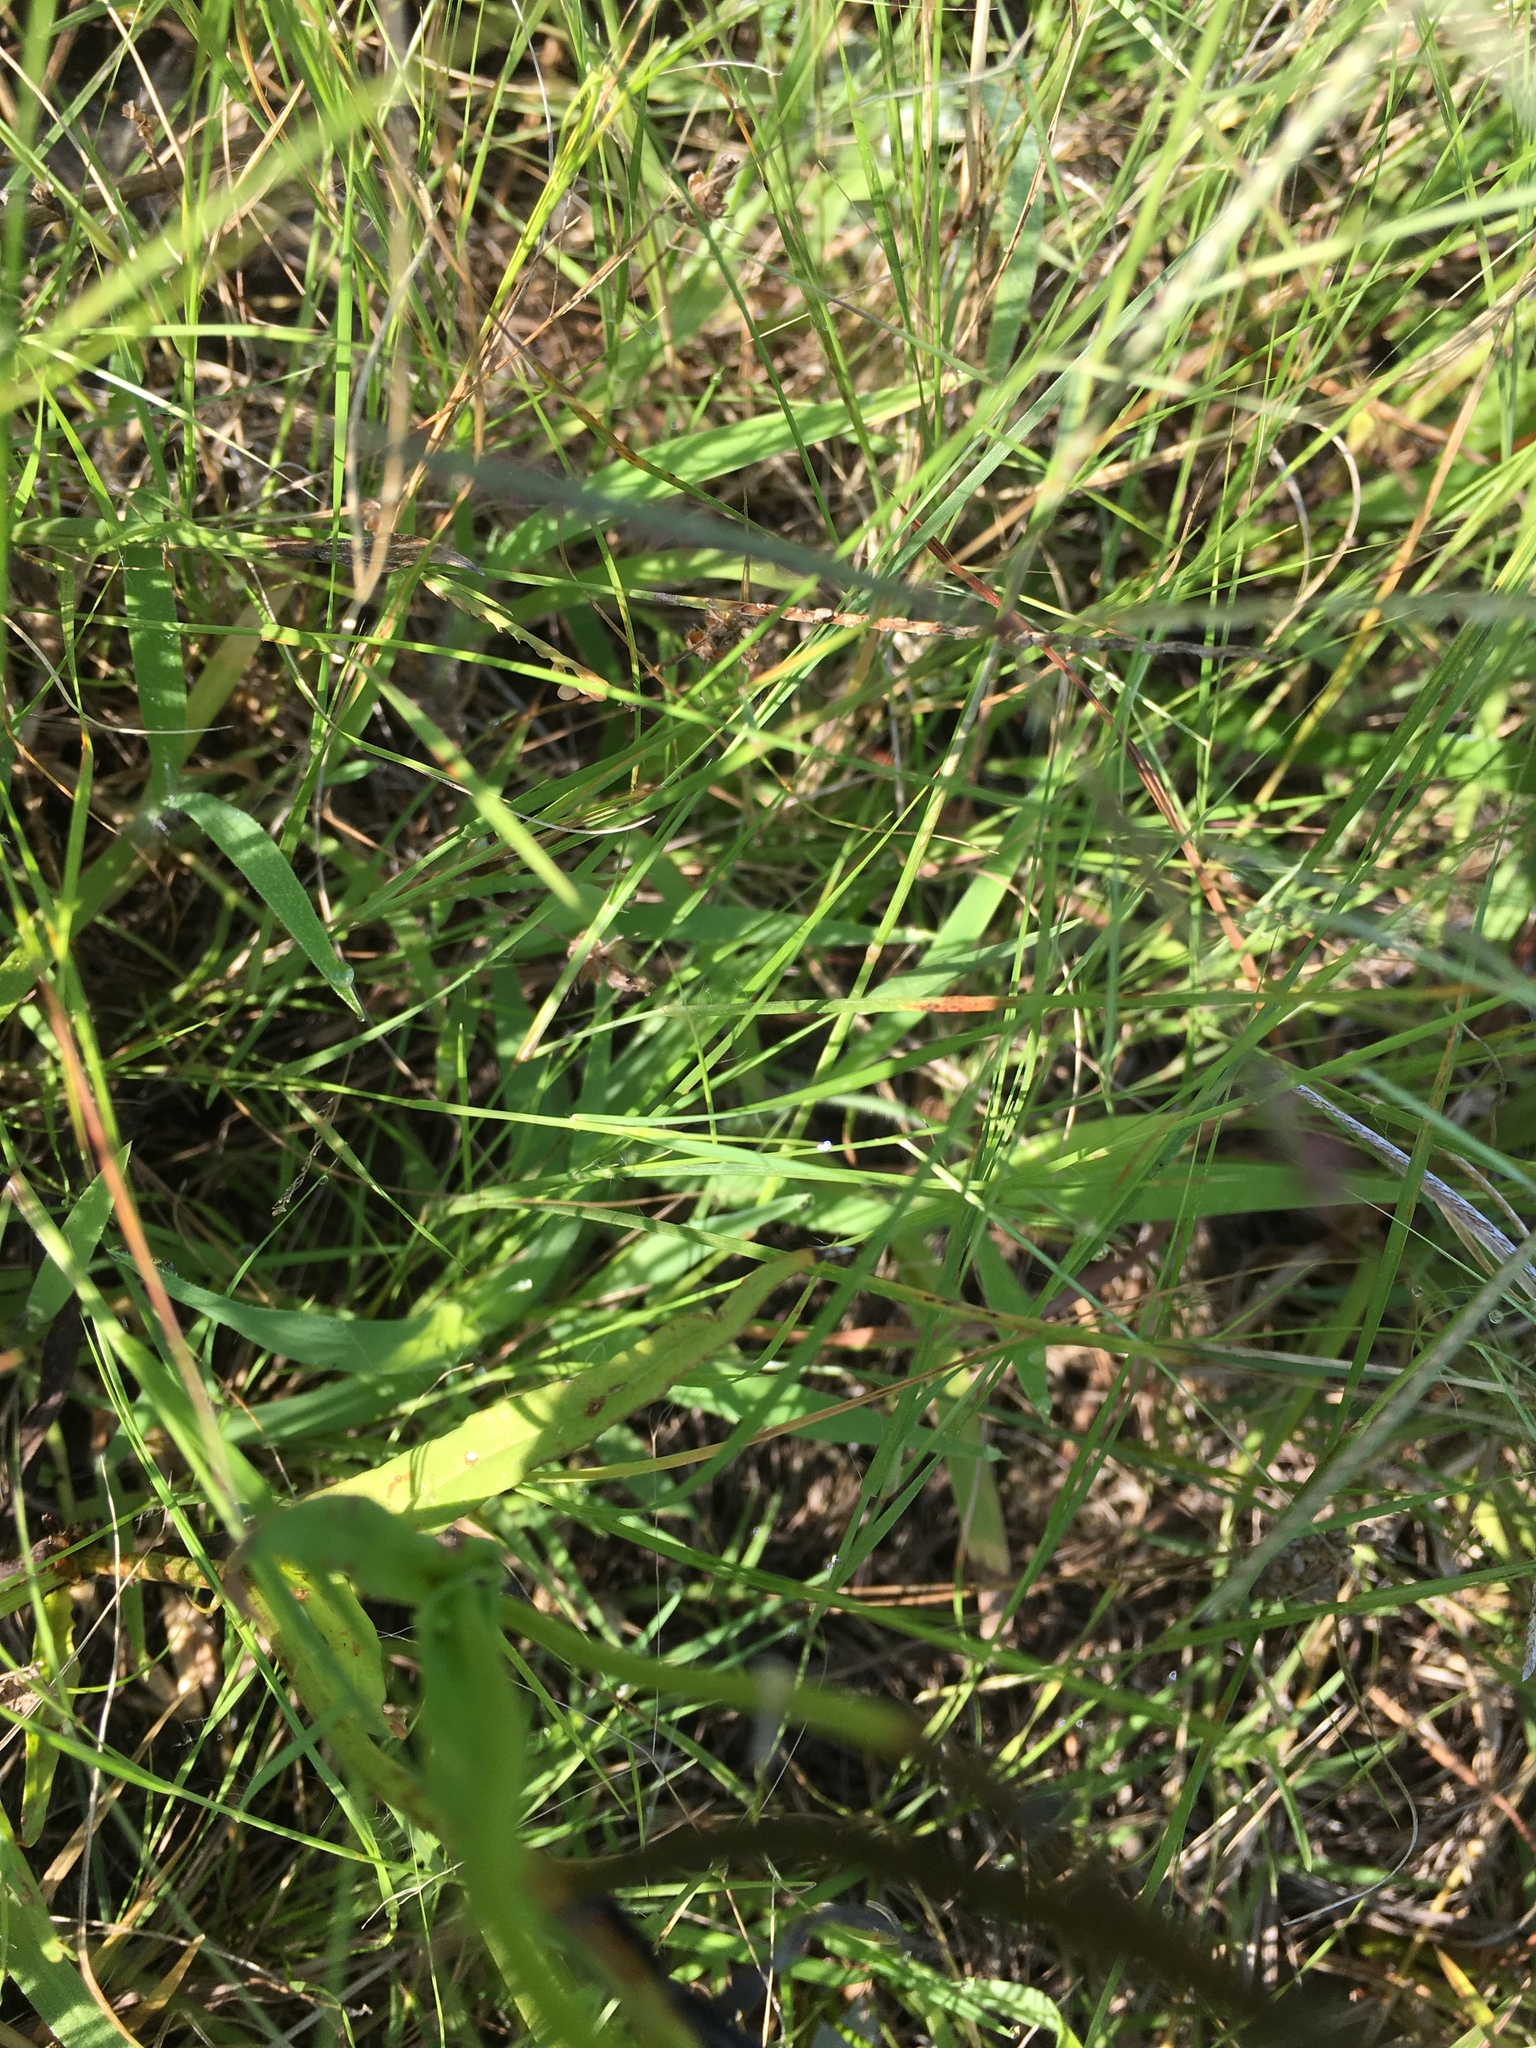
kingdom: Plantae
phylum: Tracheophyta
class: Magnoliopsida
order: Asterales
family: Asteraceae
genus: Pyrrhopappus
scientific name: Pyrrhopappus carolinianus
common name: Carolina desert-chicory
